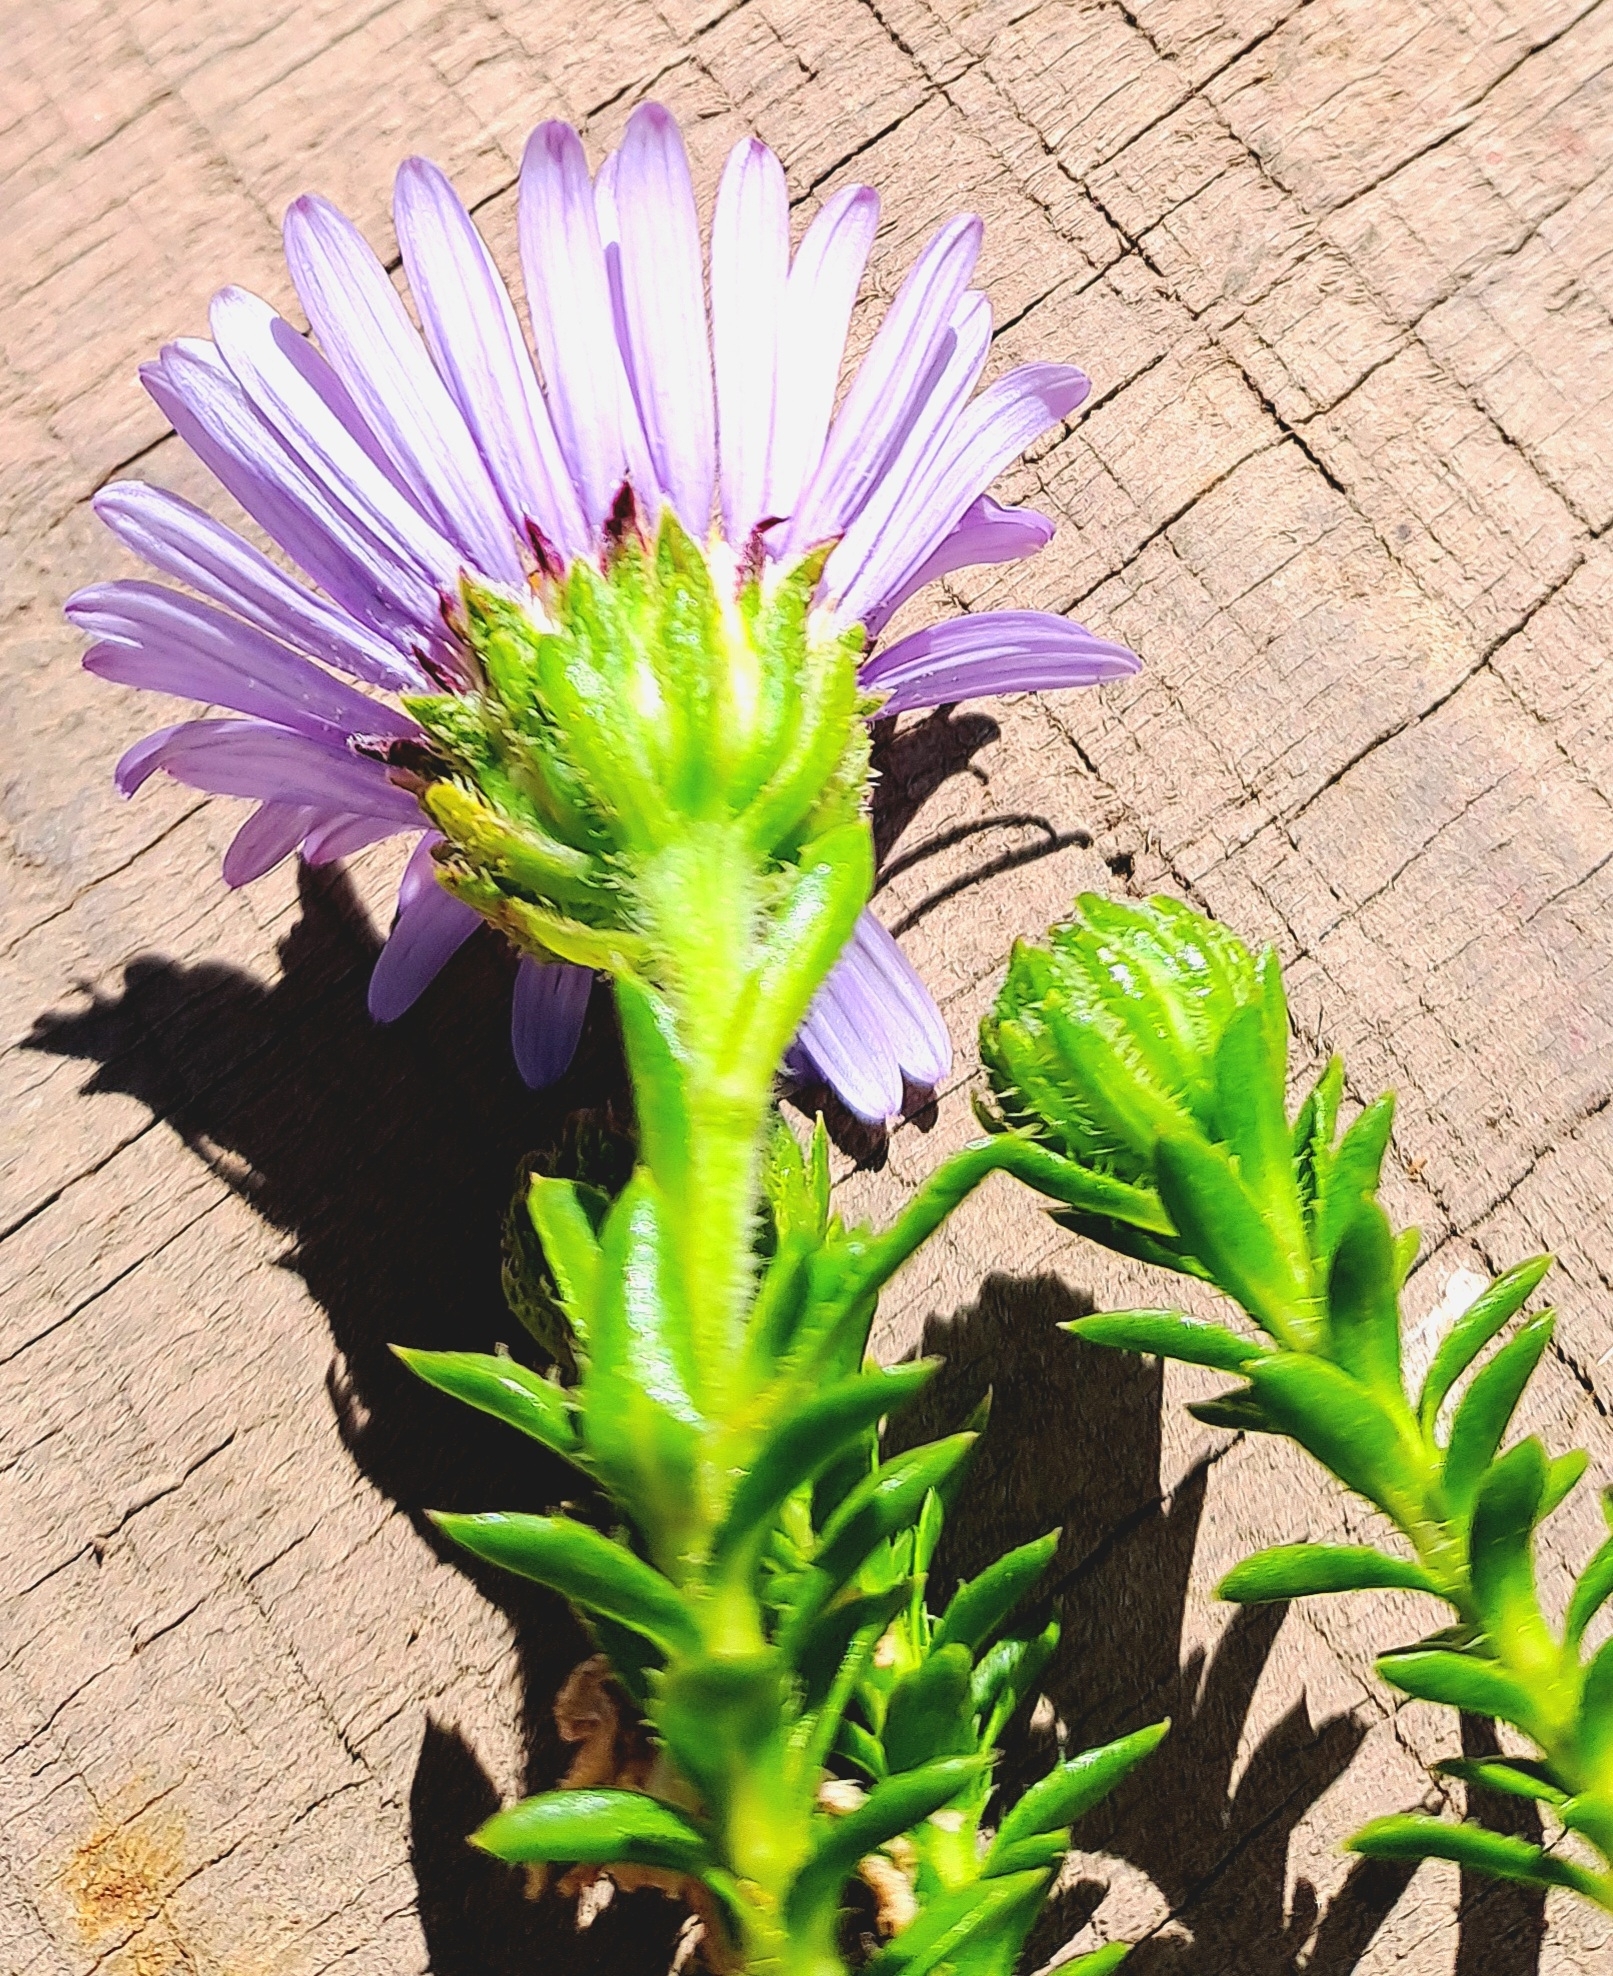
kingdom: Plantae
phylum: Tracheophyta
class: Magnoliopsida
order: Asterales
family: Asteraceae
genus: Felicia
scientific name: Felicia echinata
